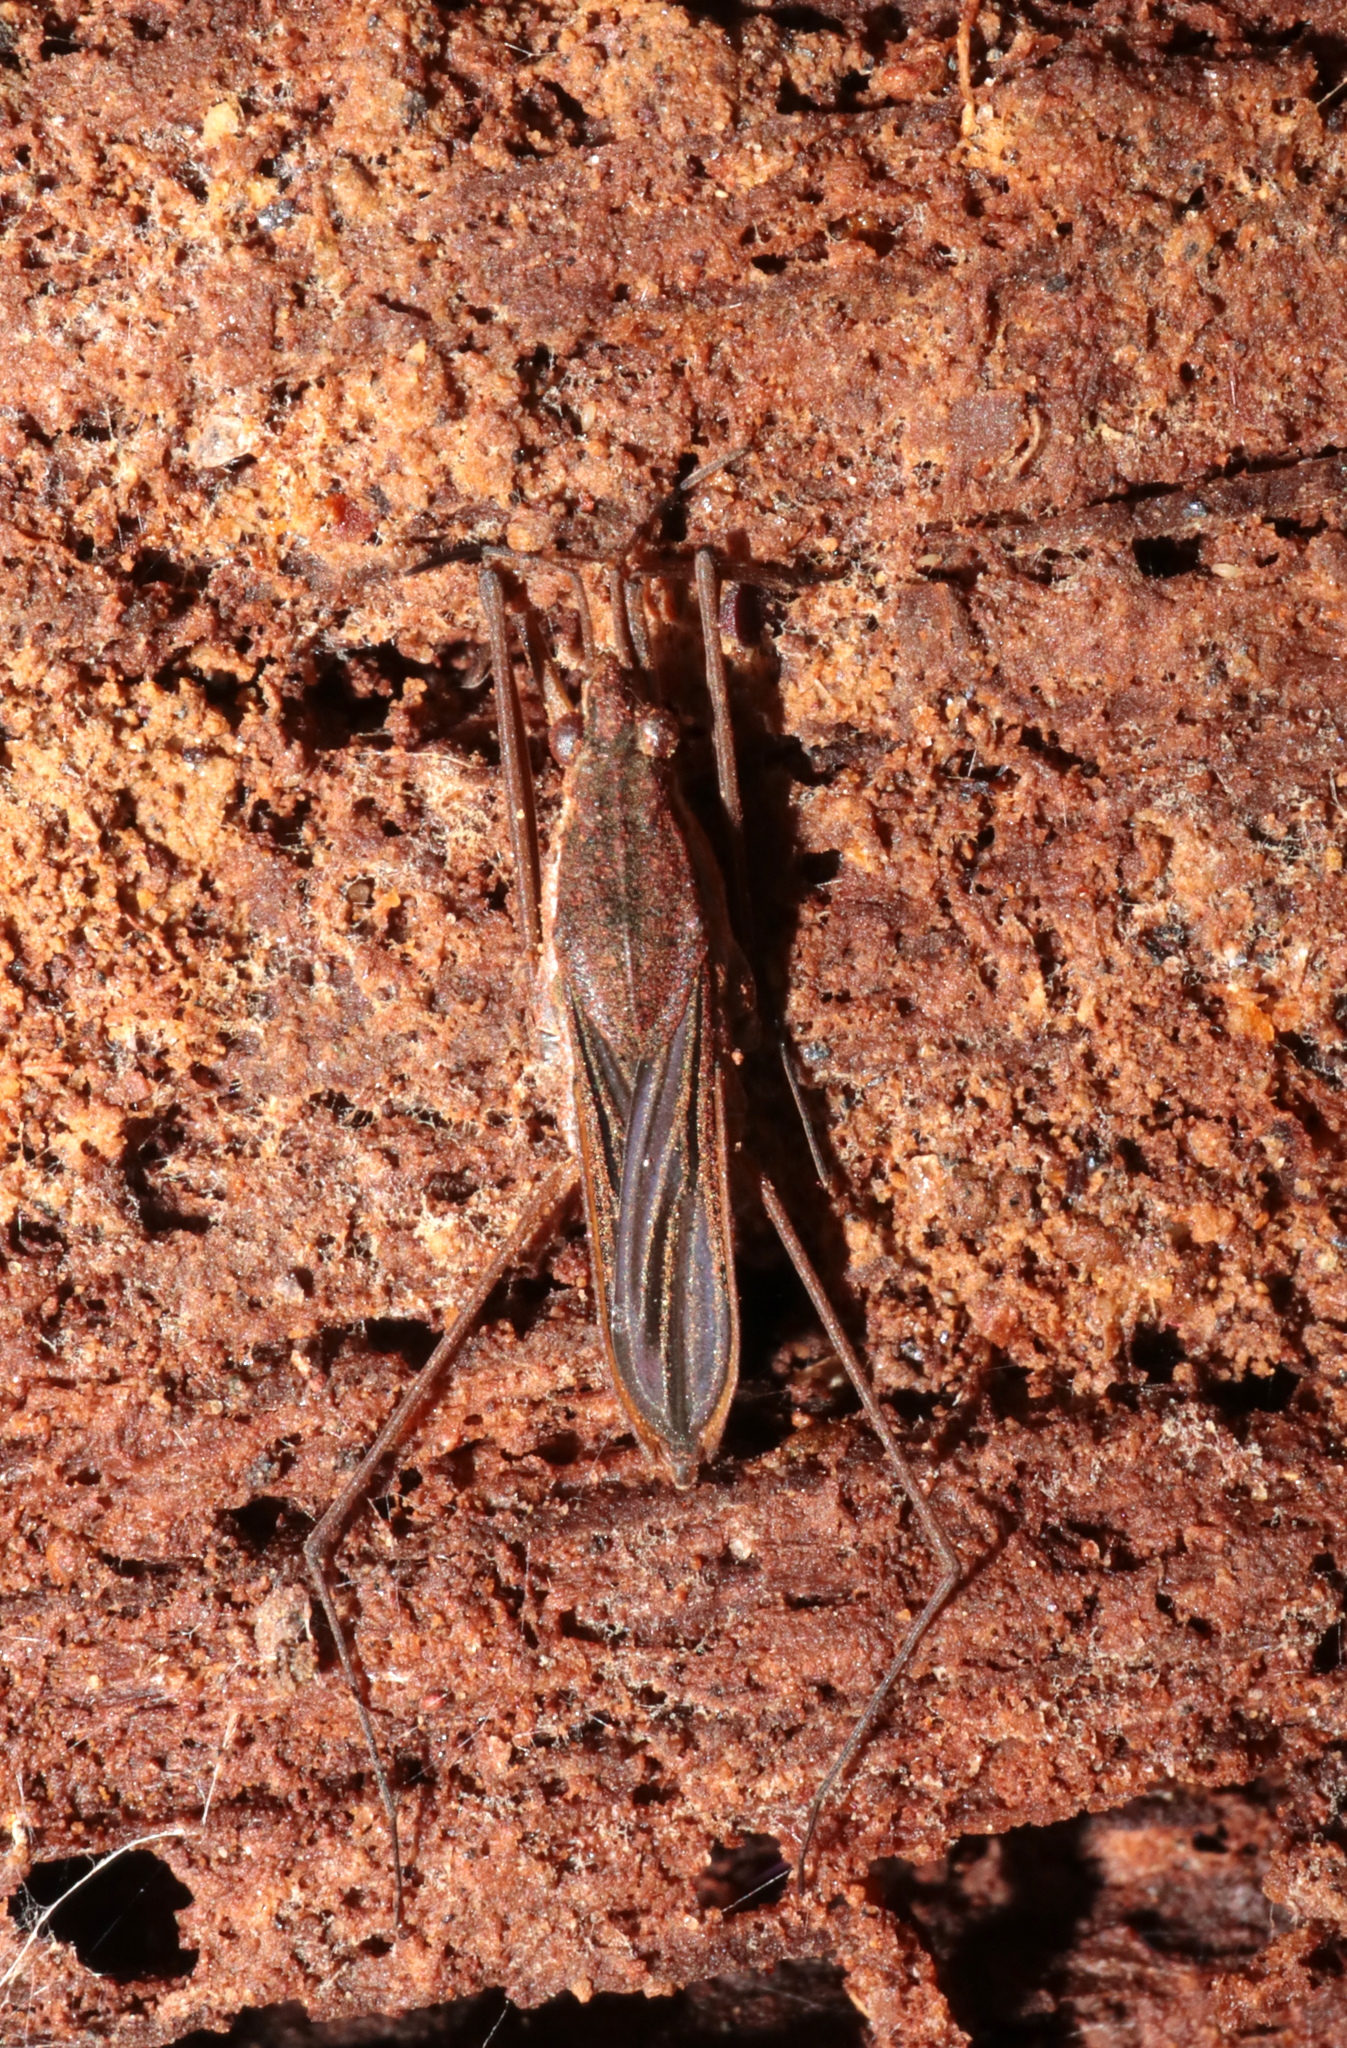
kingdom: Animalia
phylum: Arthropoda
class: Insecta
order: Hemiptera
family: Gerridae
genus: Gerris
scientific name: Gerris
